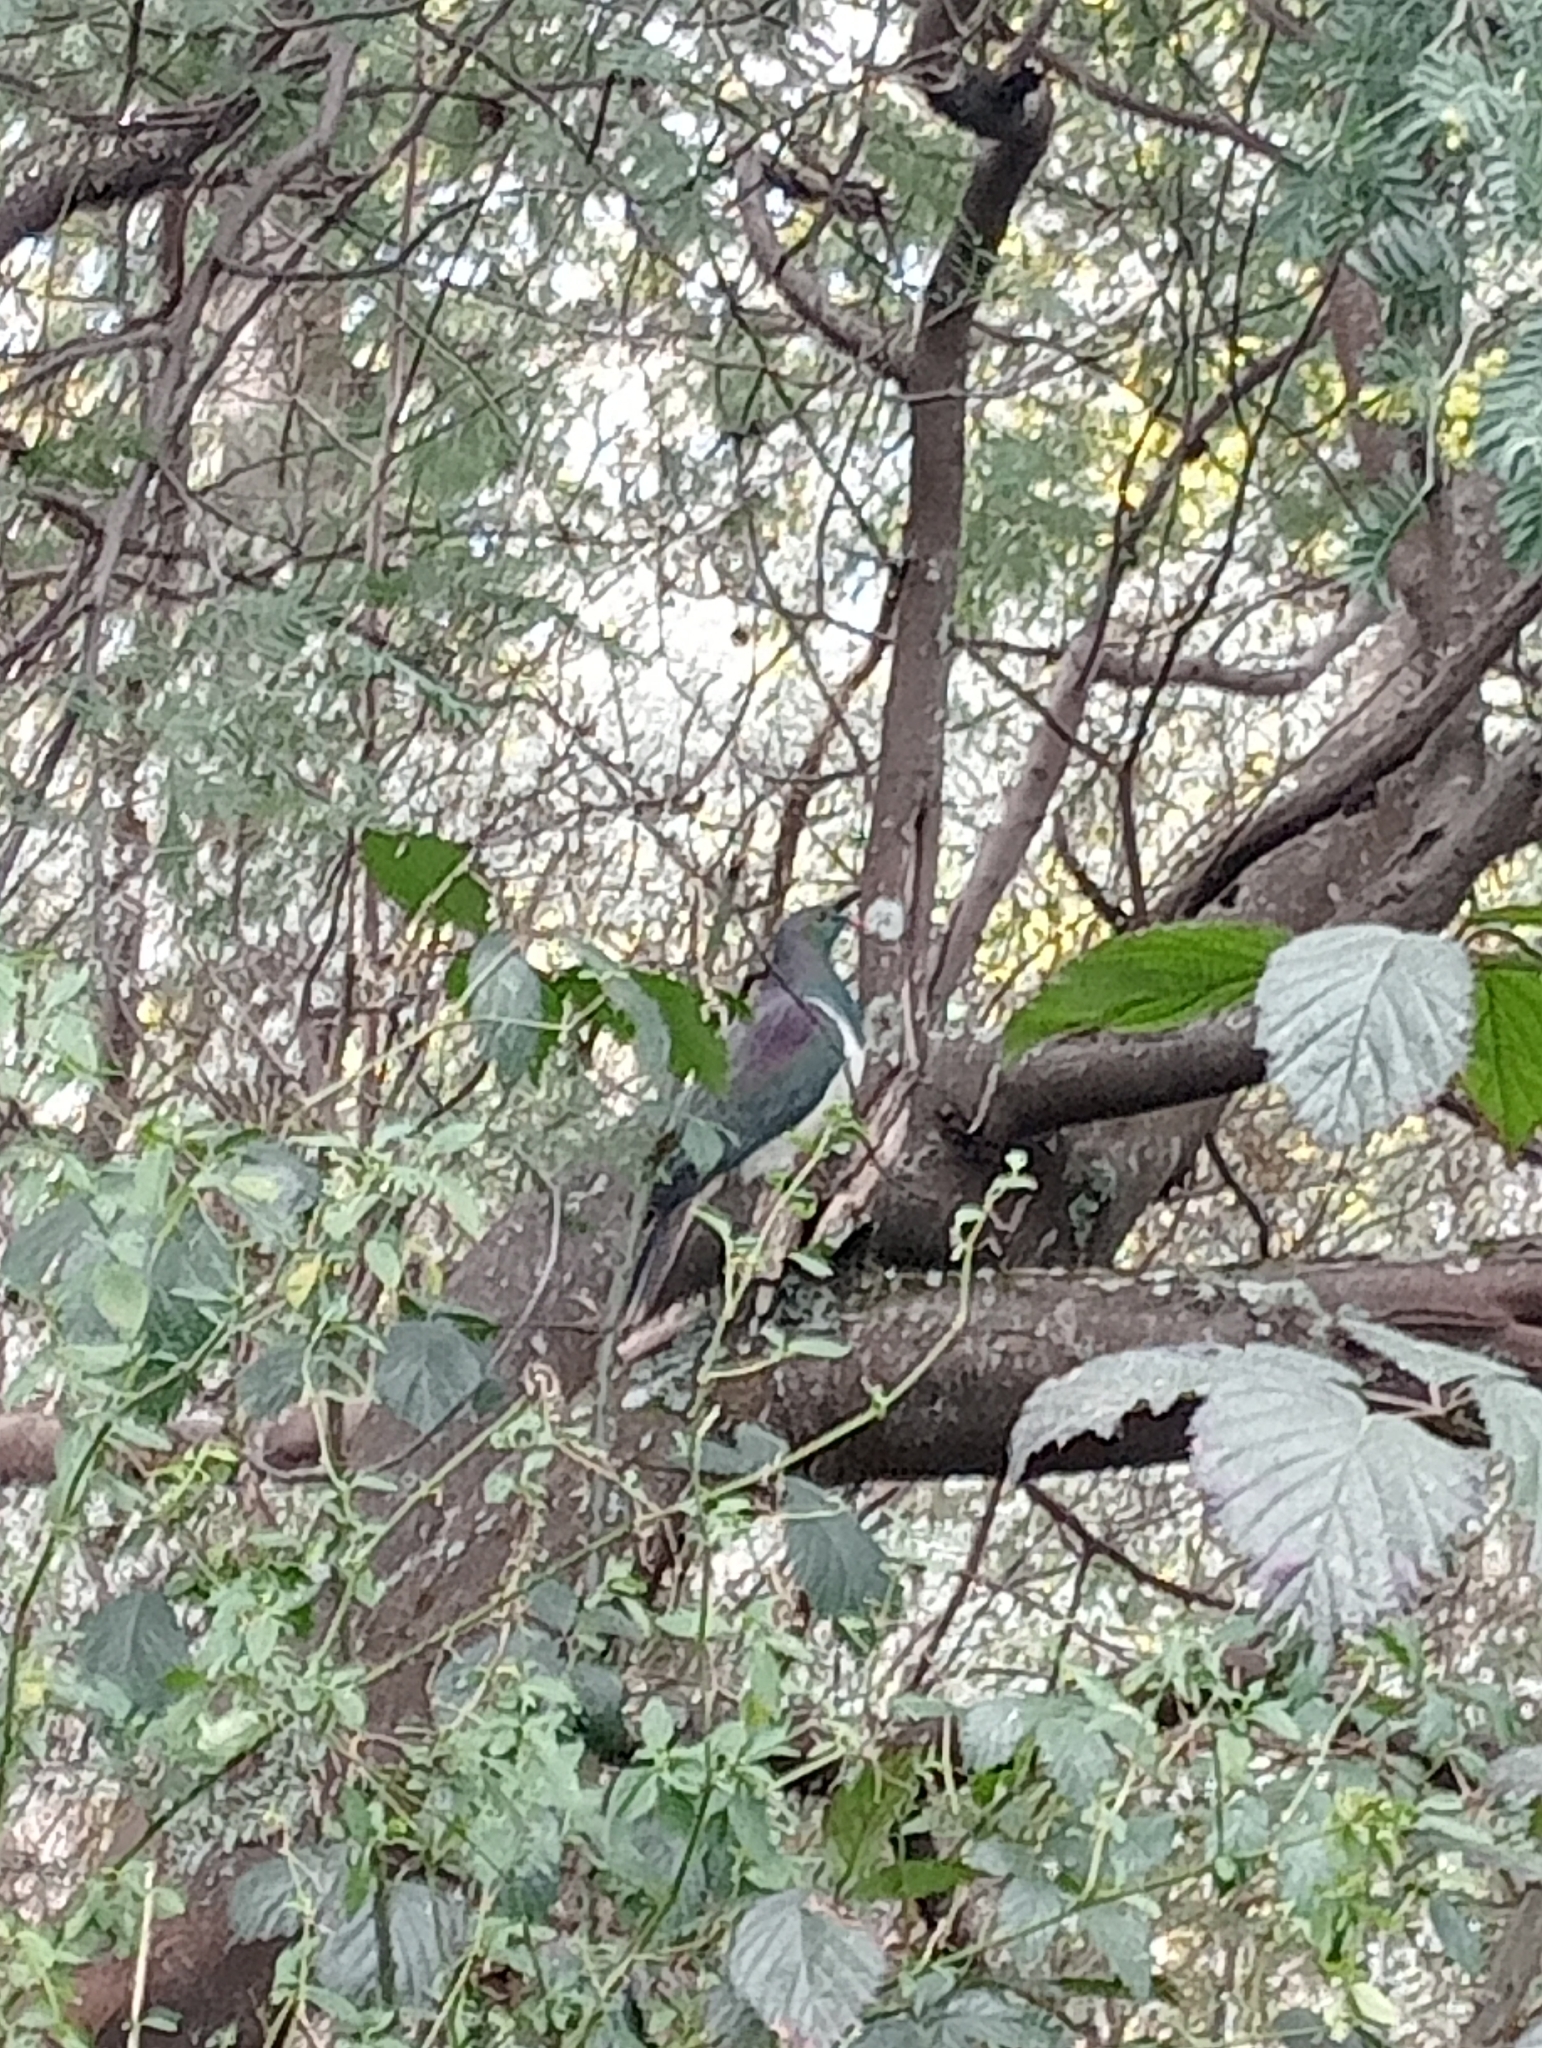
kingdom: Animalia
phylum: Chordata
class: Aves
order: Columbiformes
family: Columbidae
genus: Hemiphaga
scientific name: Hemiphaga novaeseelandiae
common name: New zealand pigeon
